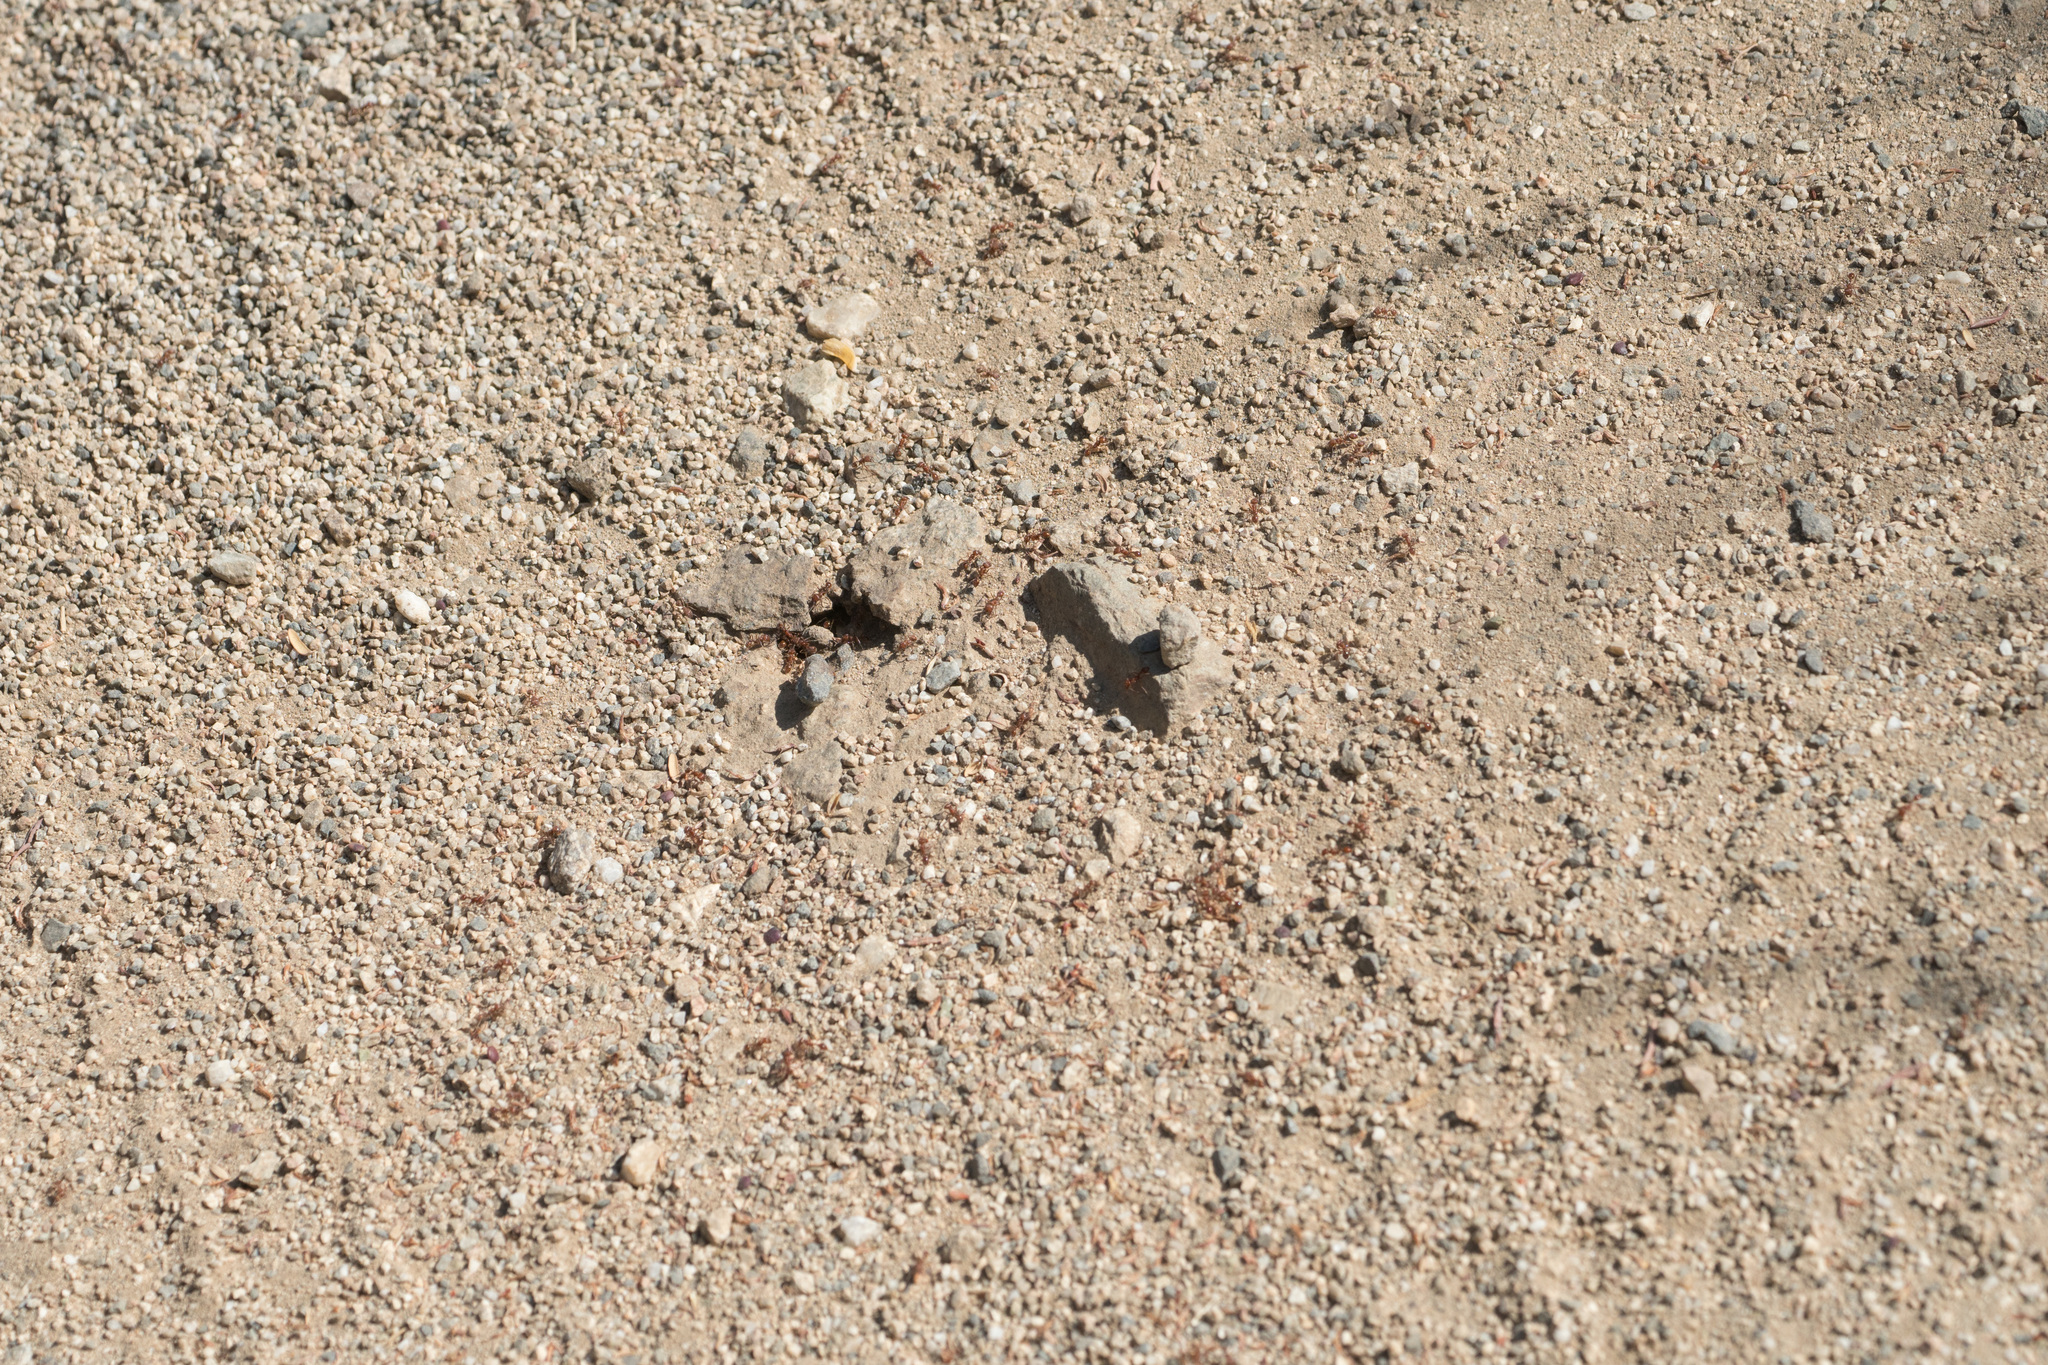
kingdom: Animalia
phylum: Arthropoda
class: Insecta
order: Hymenoptera
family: Formicidae
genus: Pogonomyrmex
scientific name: Pogonomyrmex subnitidus
